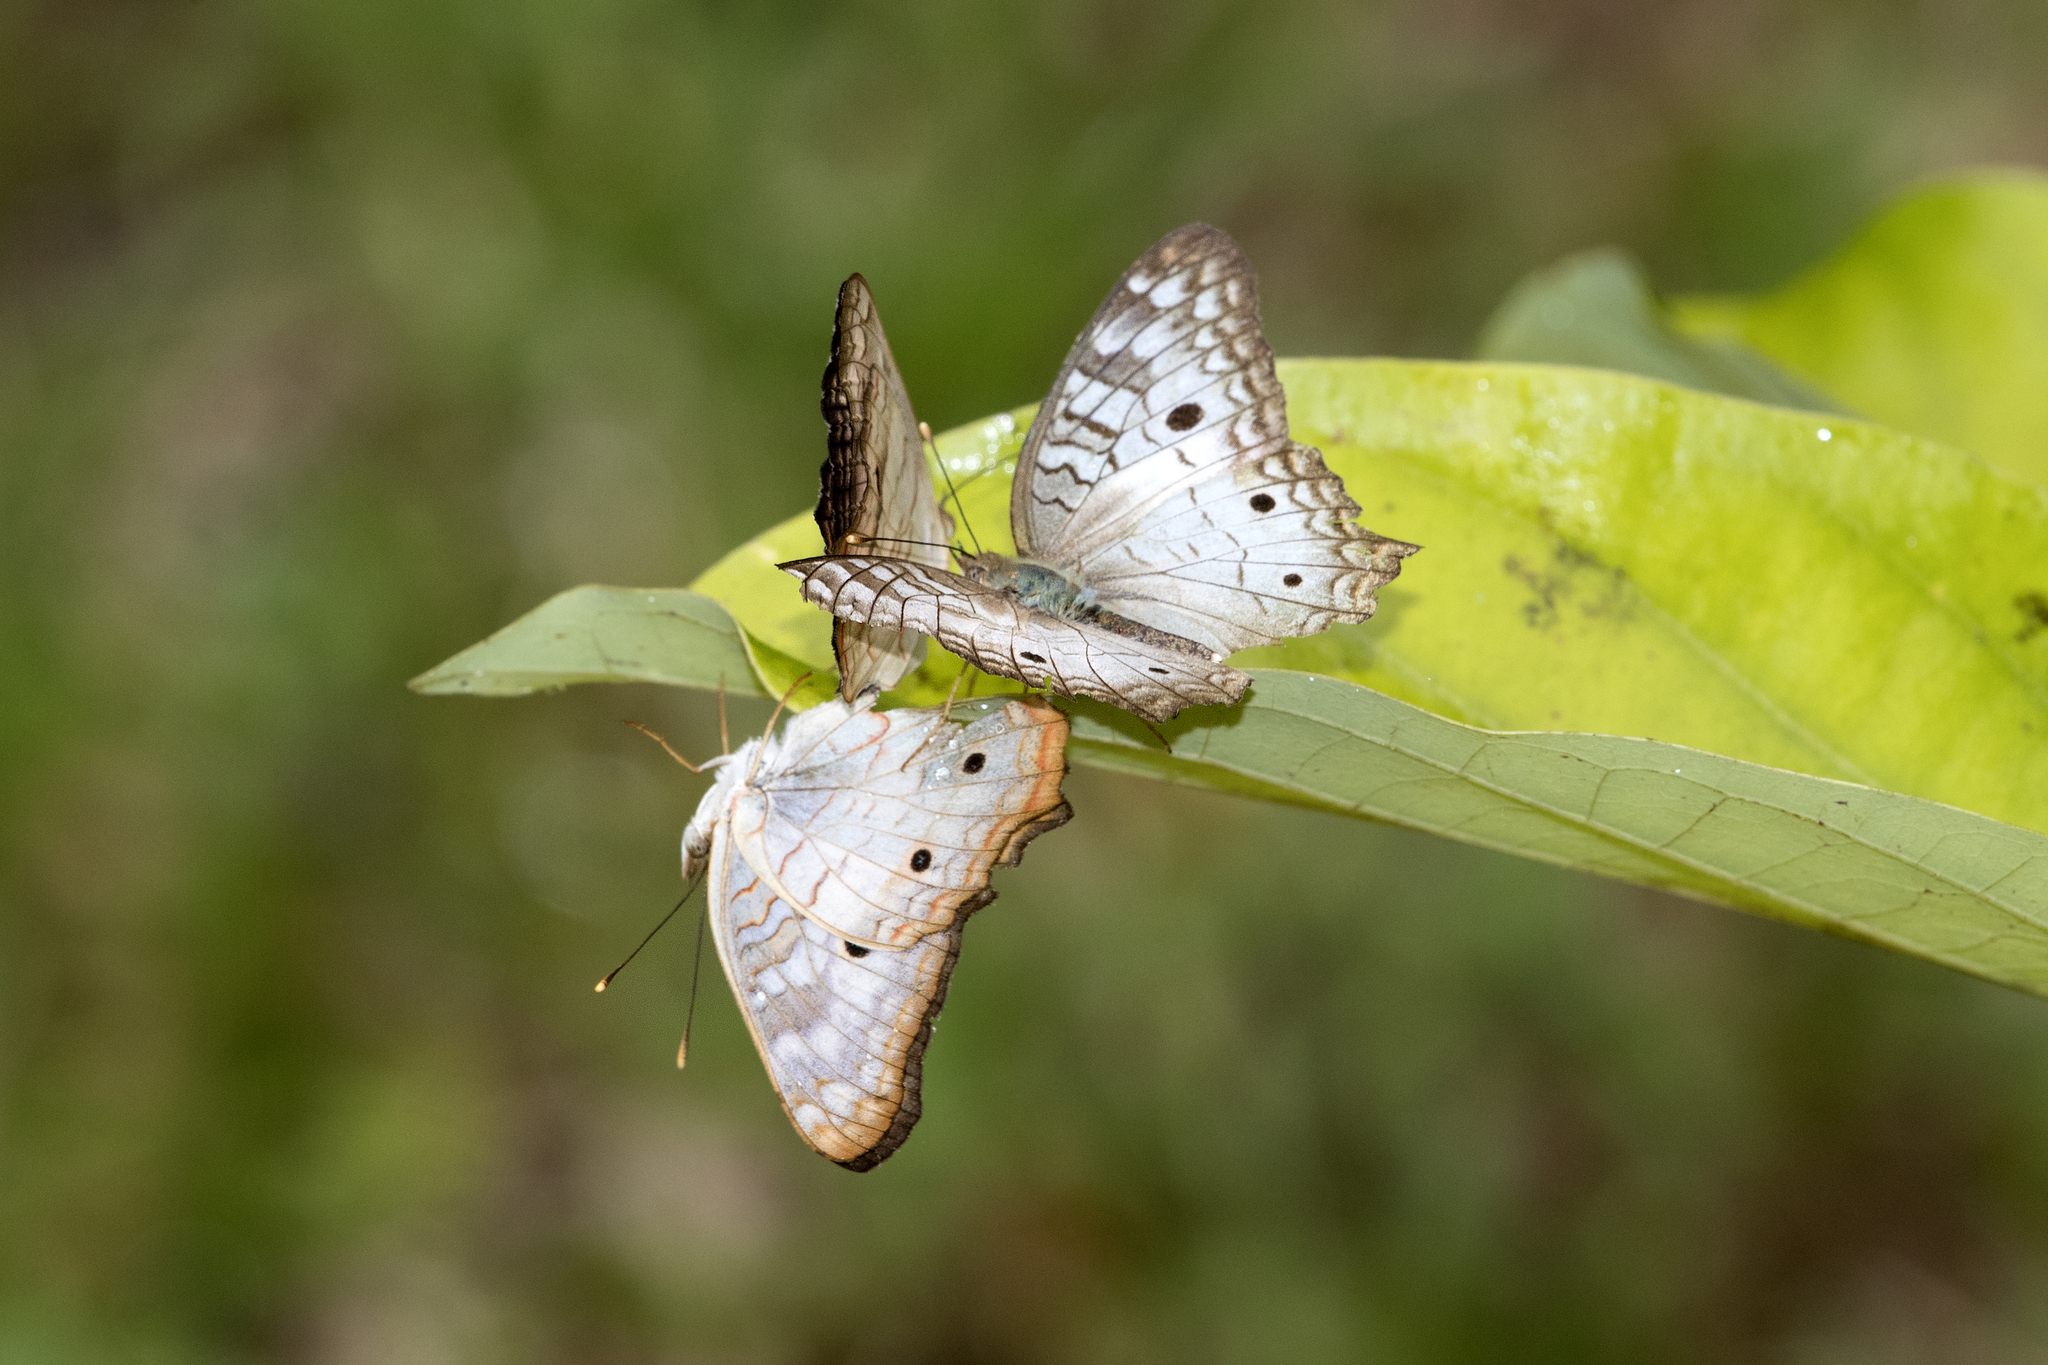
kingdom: Animalia
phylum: Arthropoda
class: Insecta
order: Lepidoptera
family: Nymphalidae
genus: Anartia
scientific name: Anartia jatrophae
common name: White peacock
